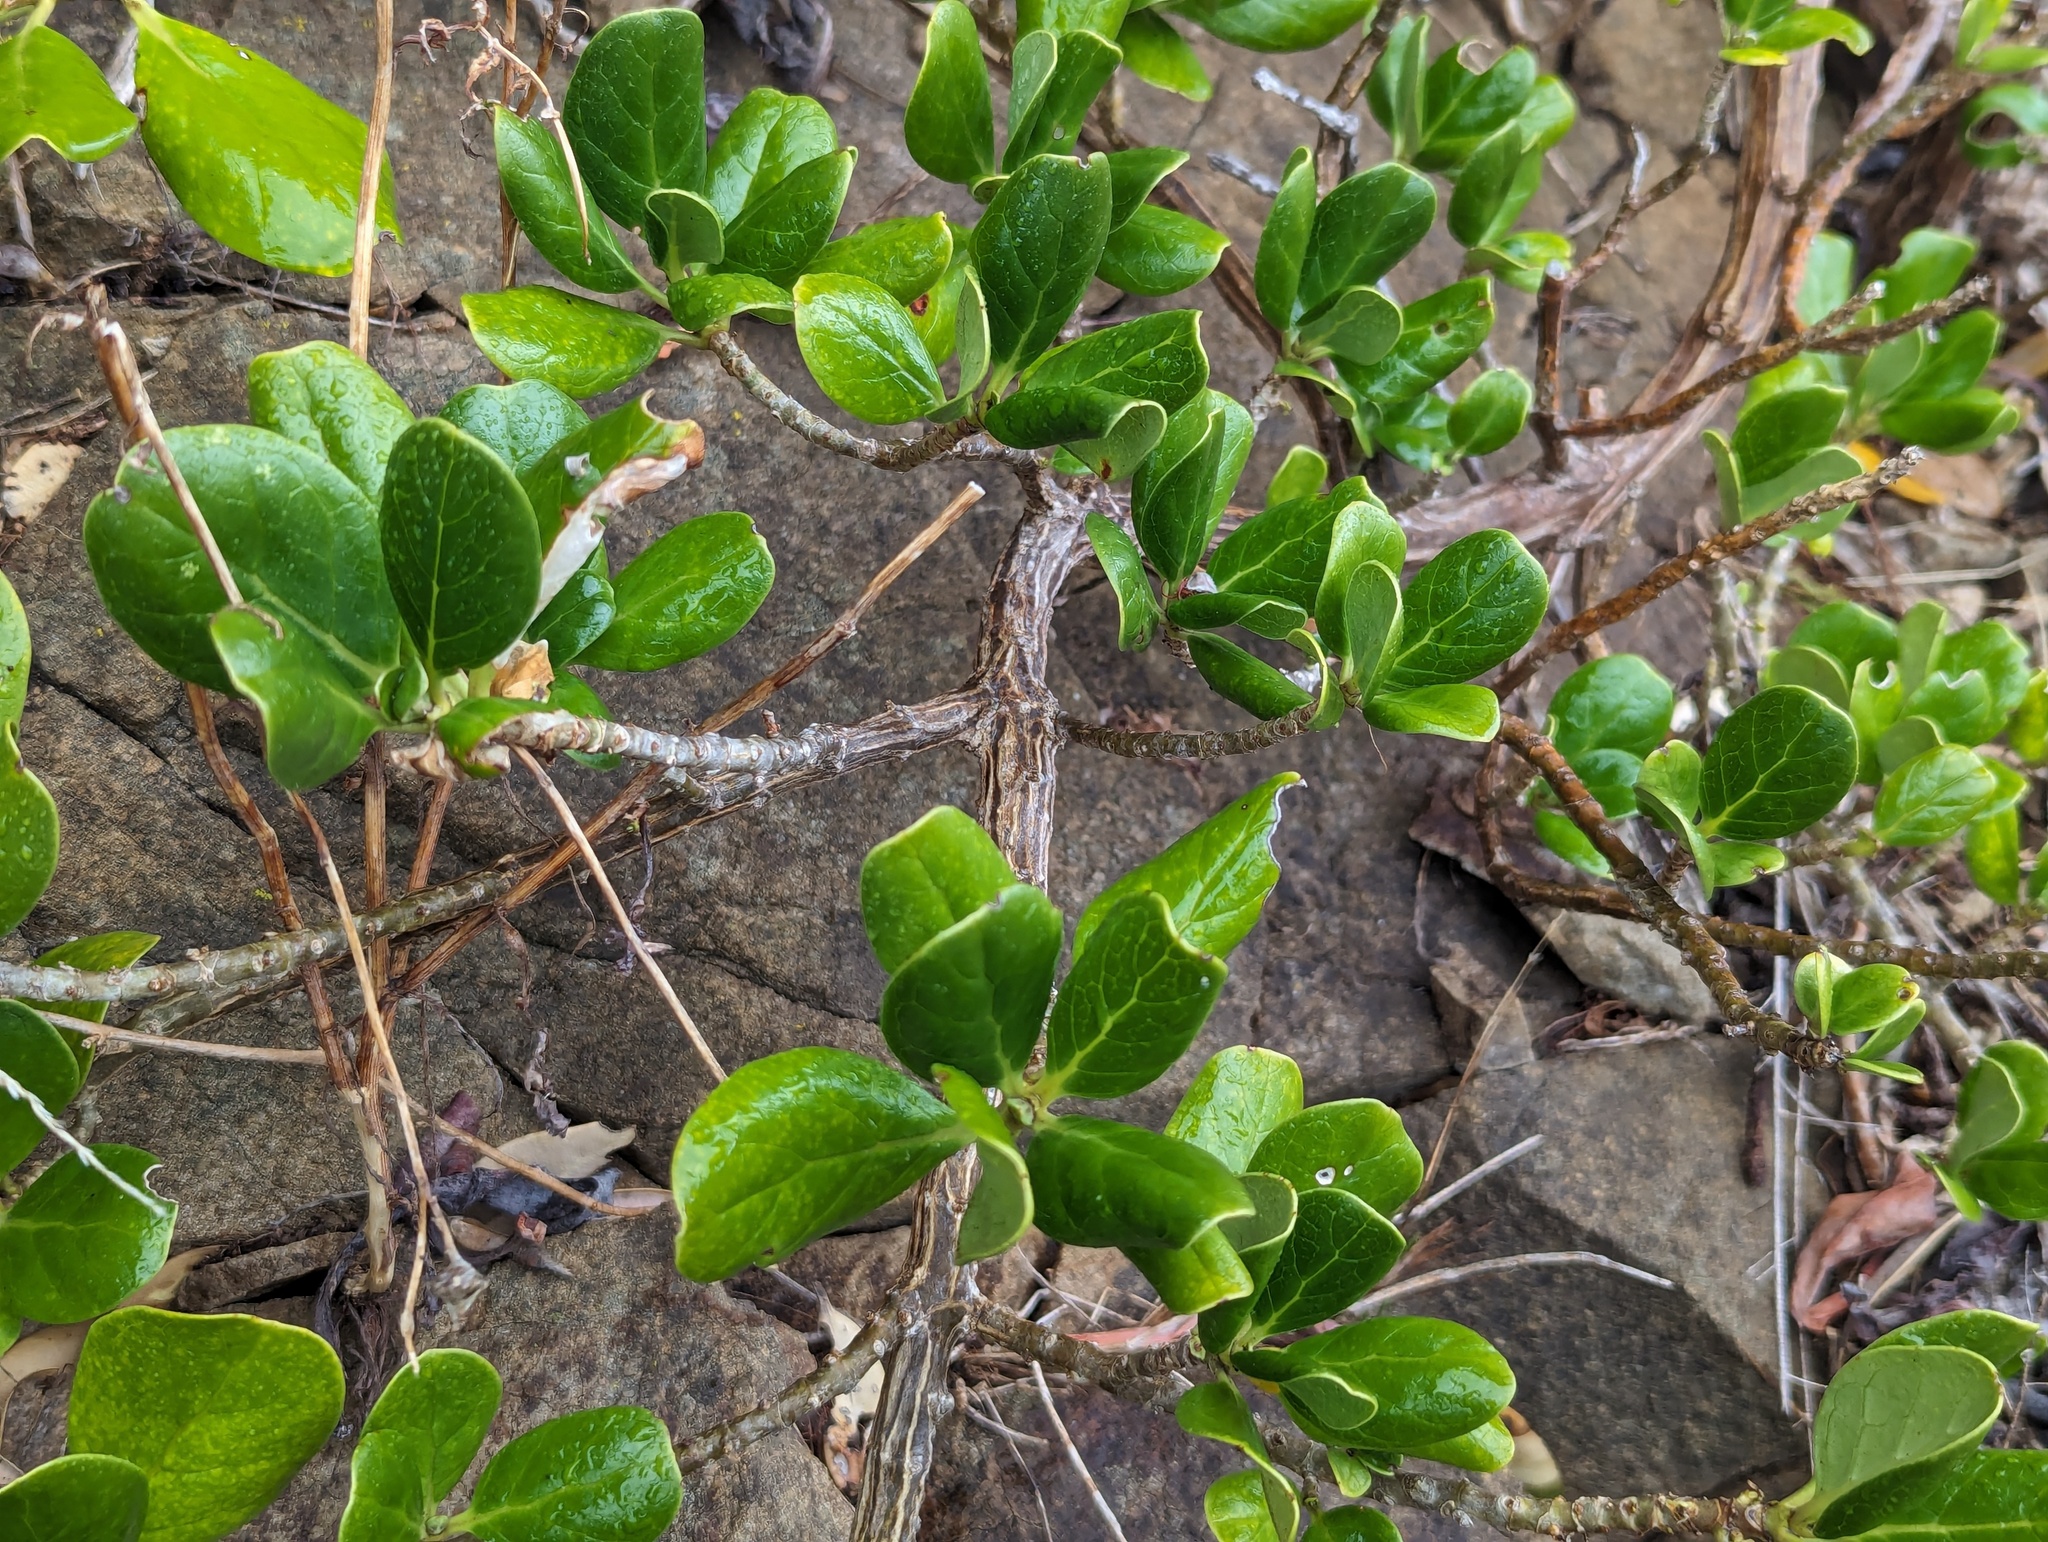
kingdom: Plantae
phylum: Tracheophyta
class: Magnoliopsida
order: Gentianales
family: Rubiaceae
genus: Coprosma
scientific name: Coprosma repens
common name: Tree bedstraw
